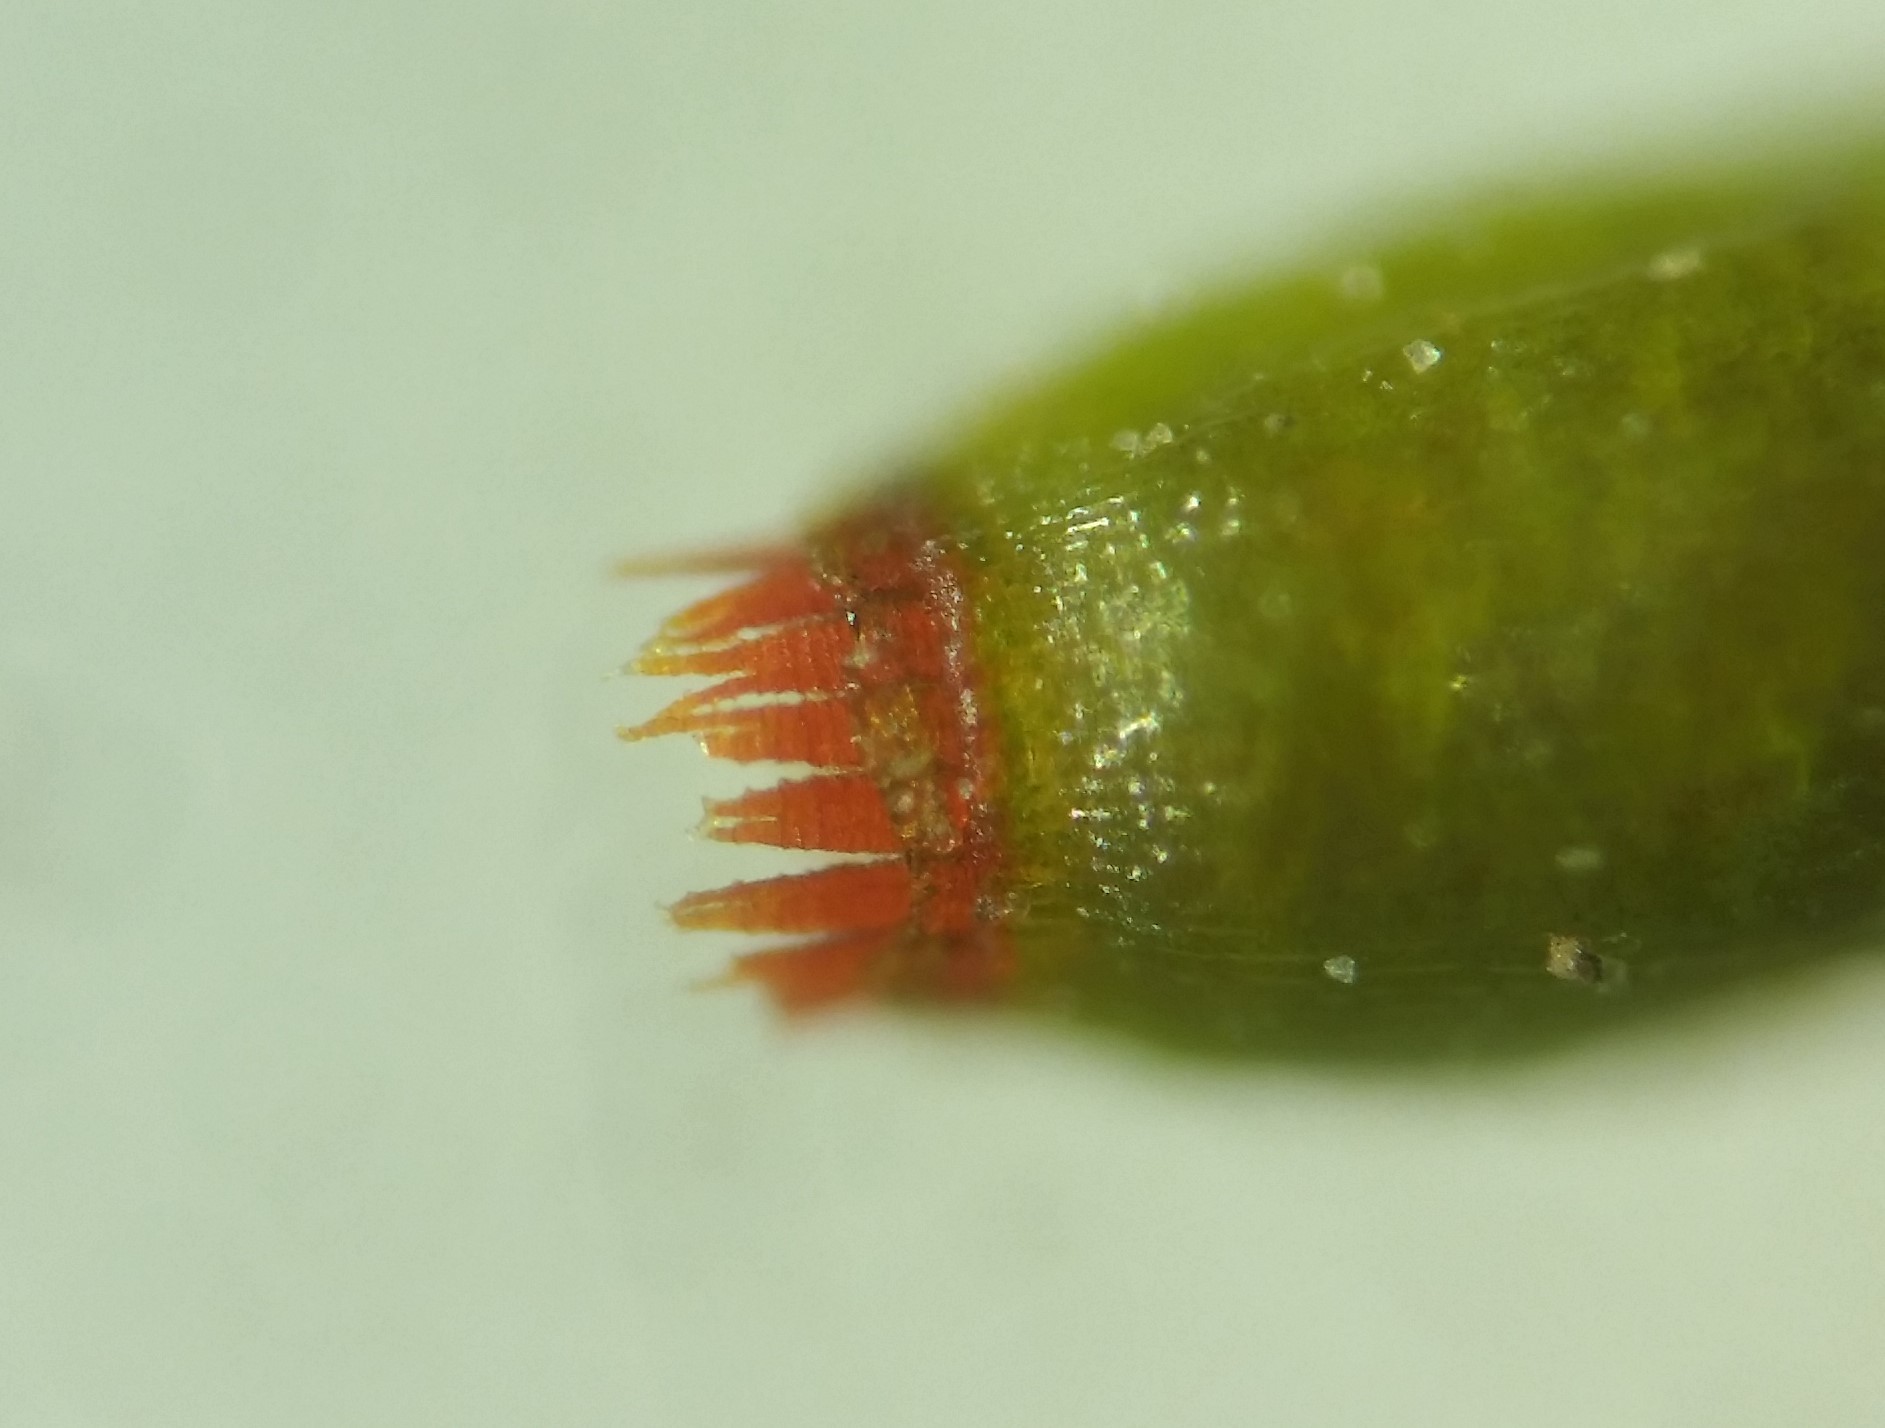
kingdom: Plantae
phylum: Bryophyta
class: Bryopsida
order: Dicranales
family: Dicranellaceae
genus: Dicranella
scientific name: Dicranella heteromalla
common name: Silky forklet moss
